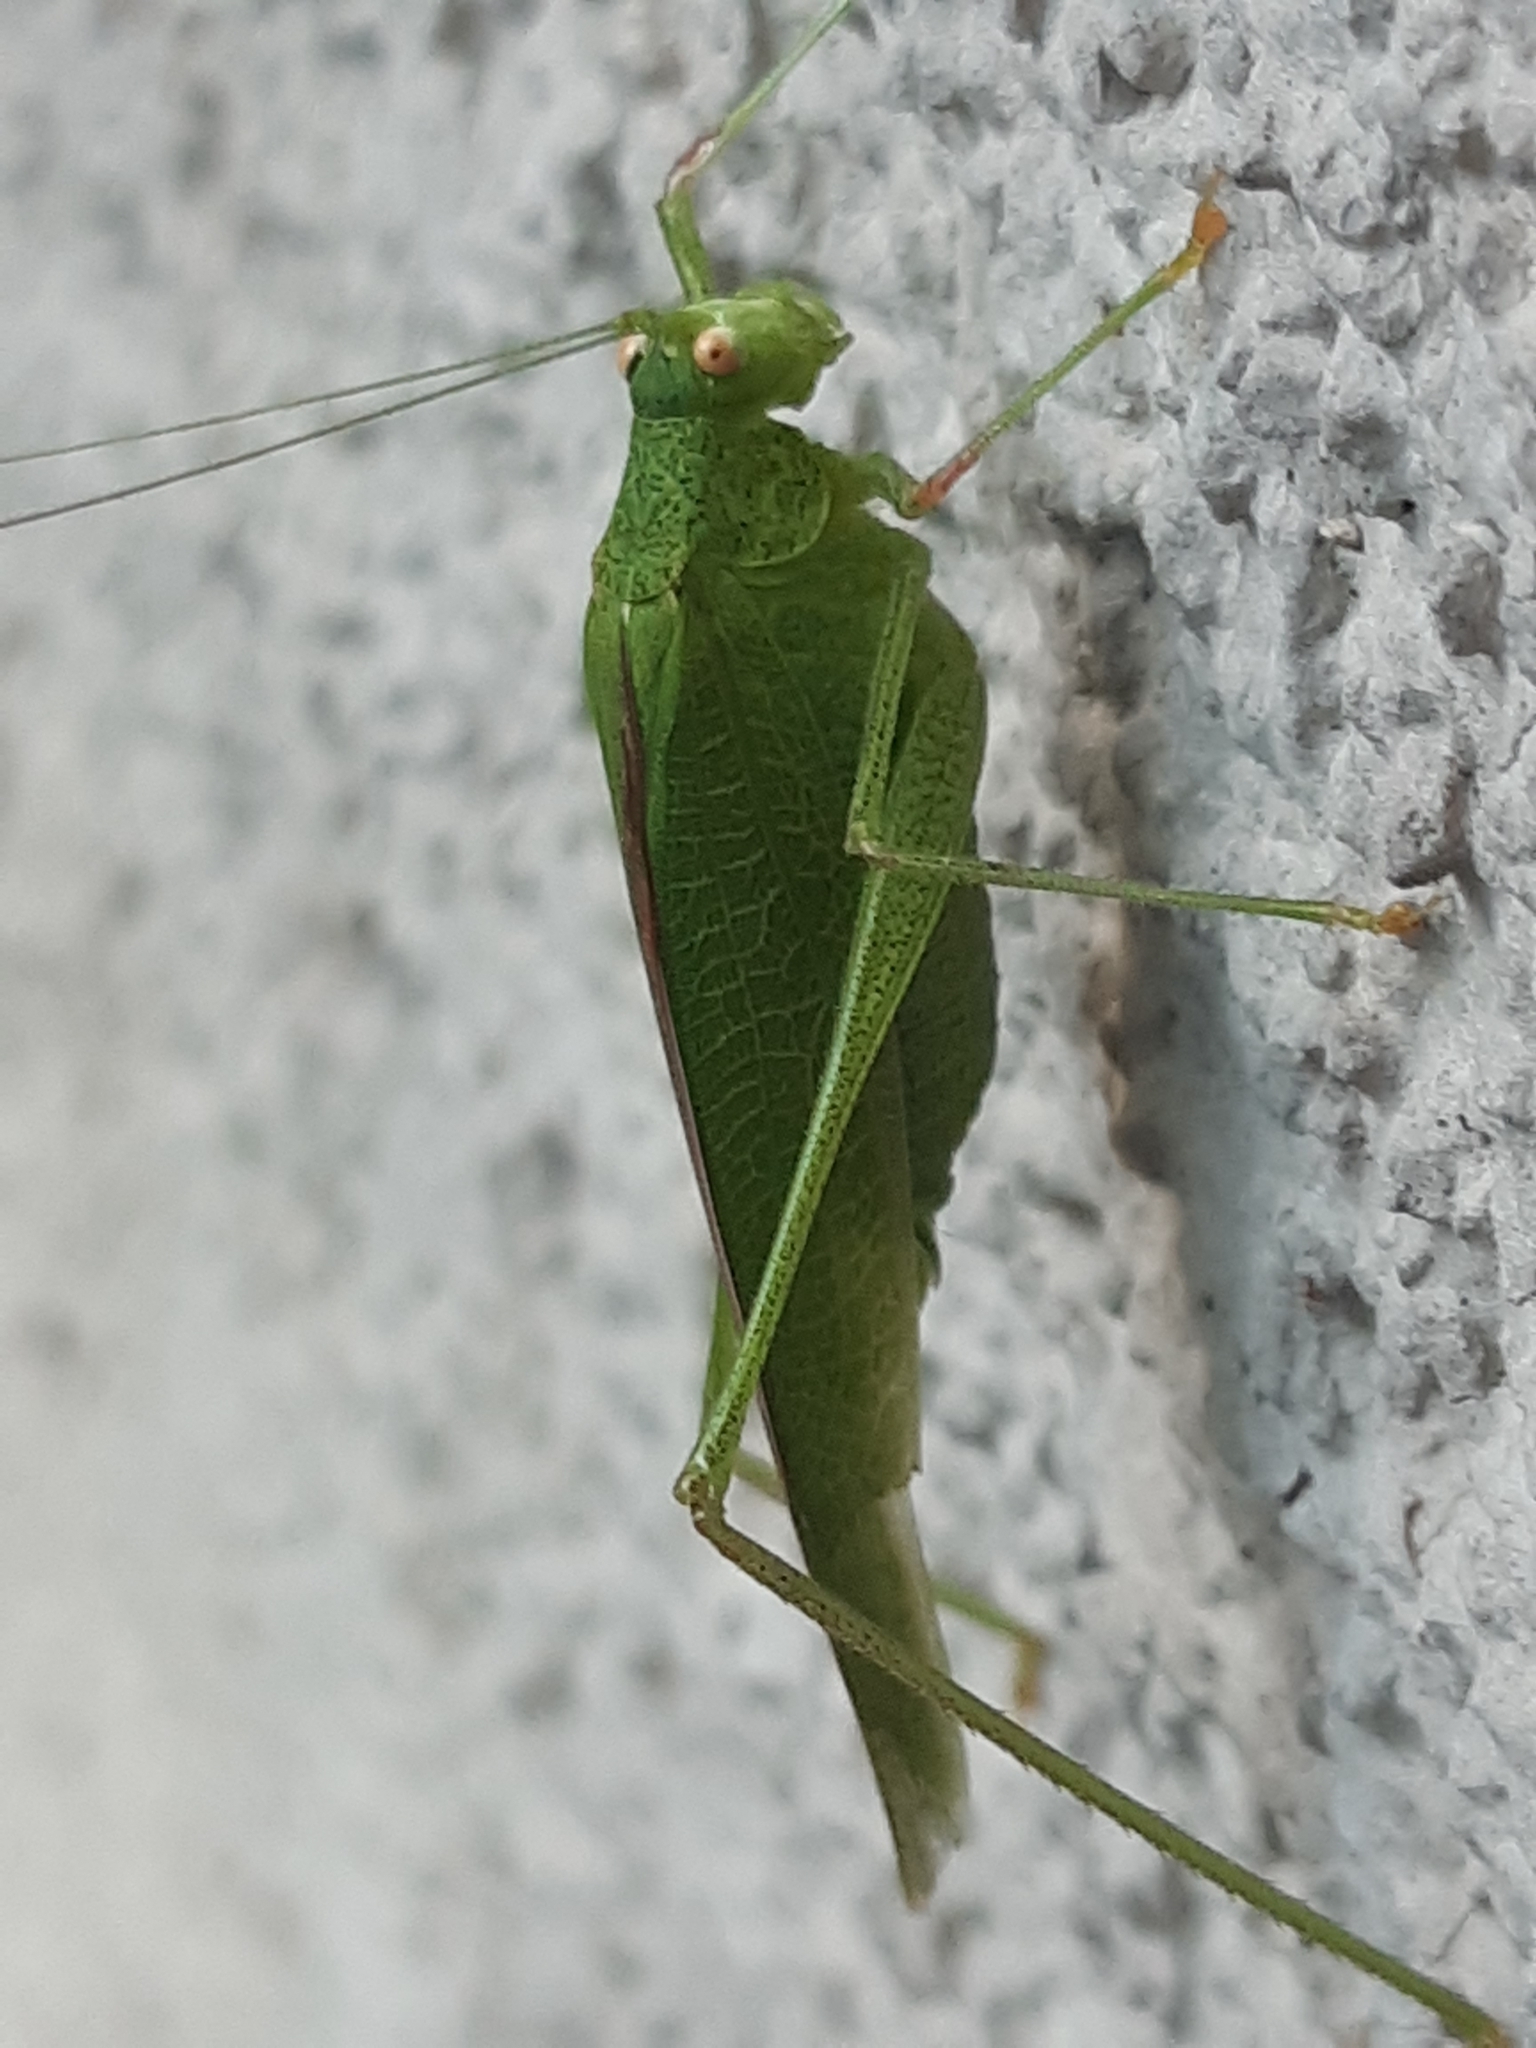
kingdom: Animalia
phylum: Arthropoda
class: Insecta
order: Orthoptera
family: Tettigoniidae
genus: Phaneroptera
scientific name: Phaneroptera nana
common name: Southern sickle bush-cricket
